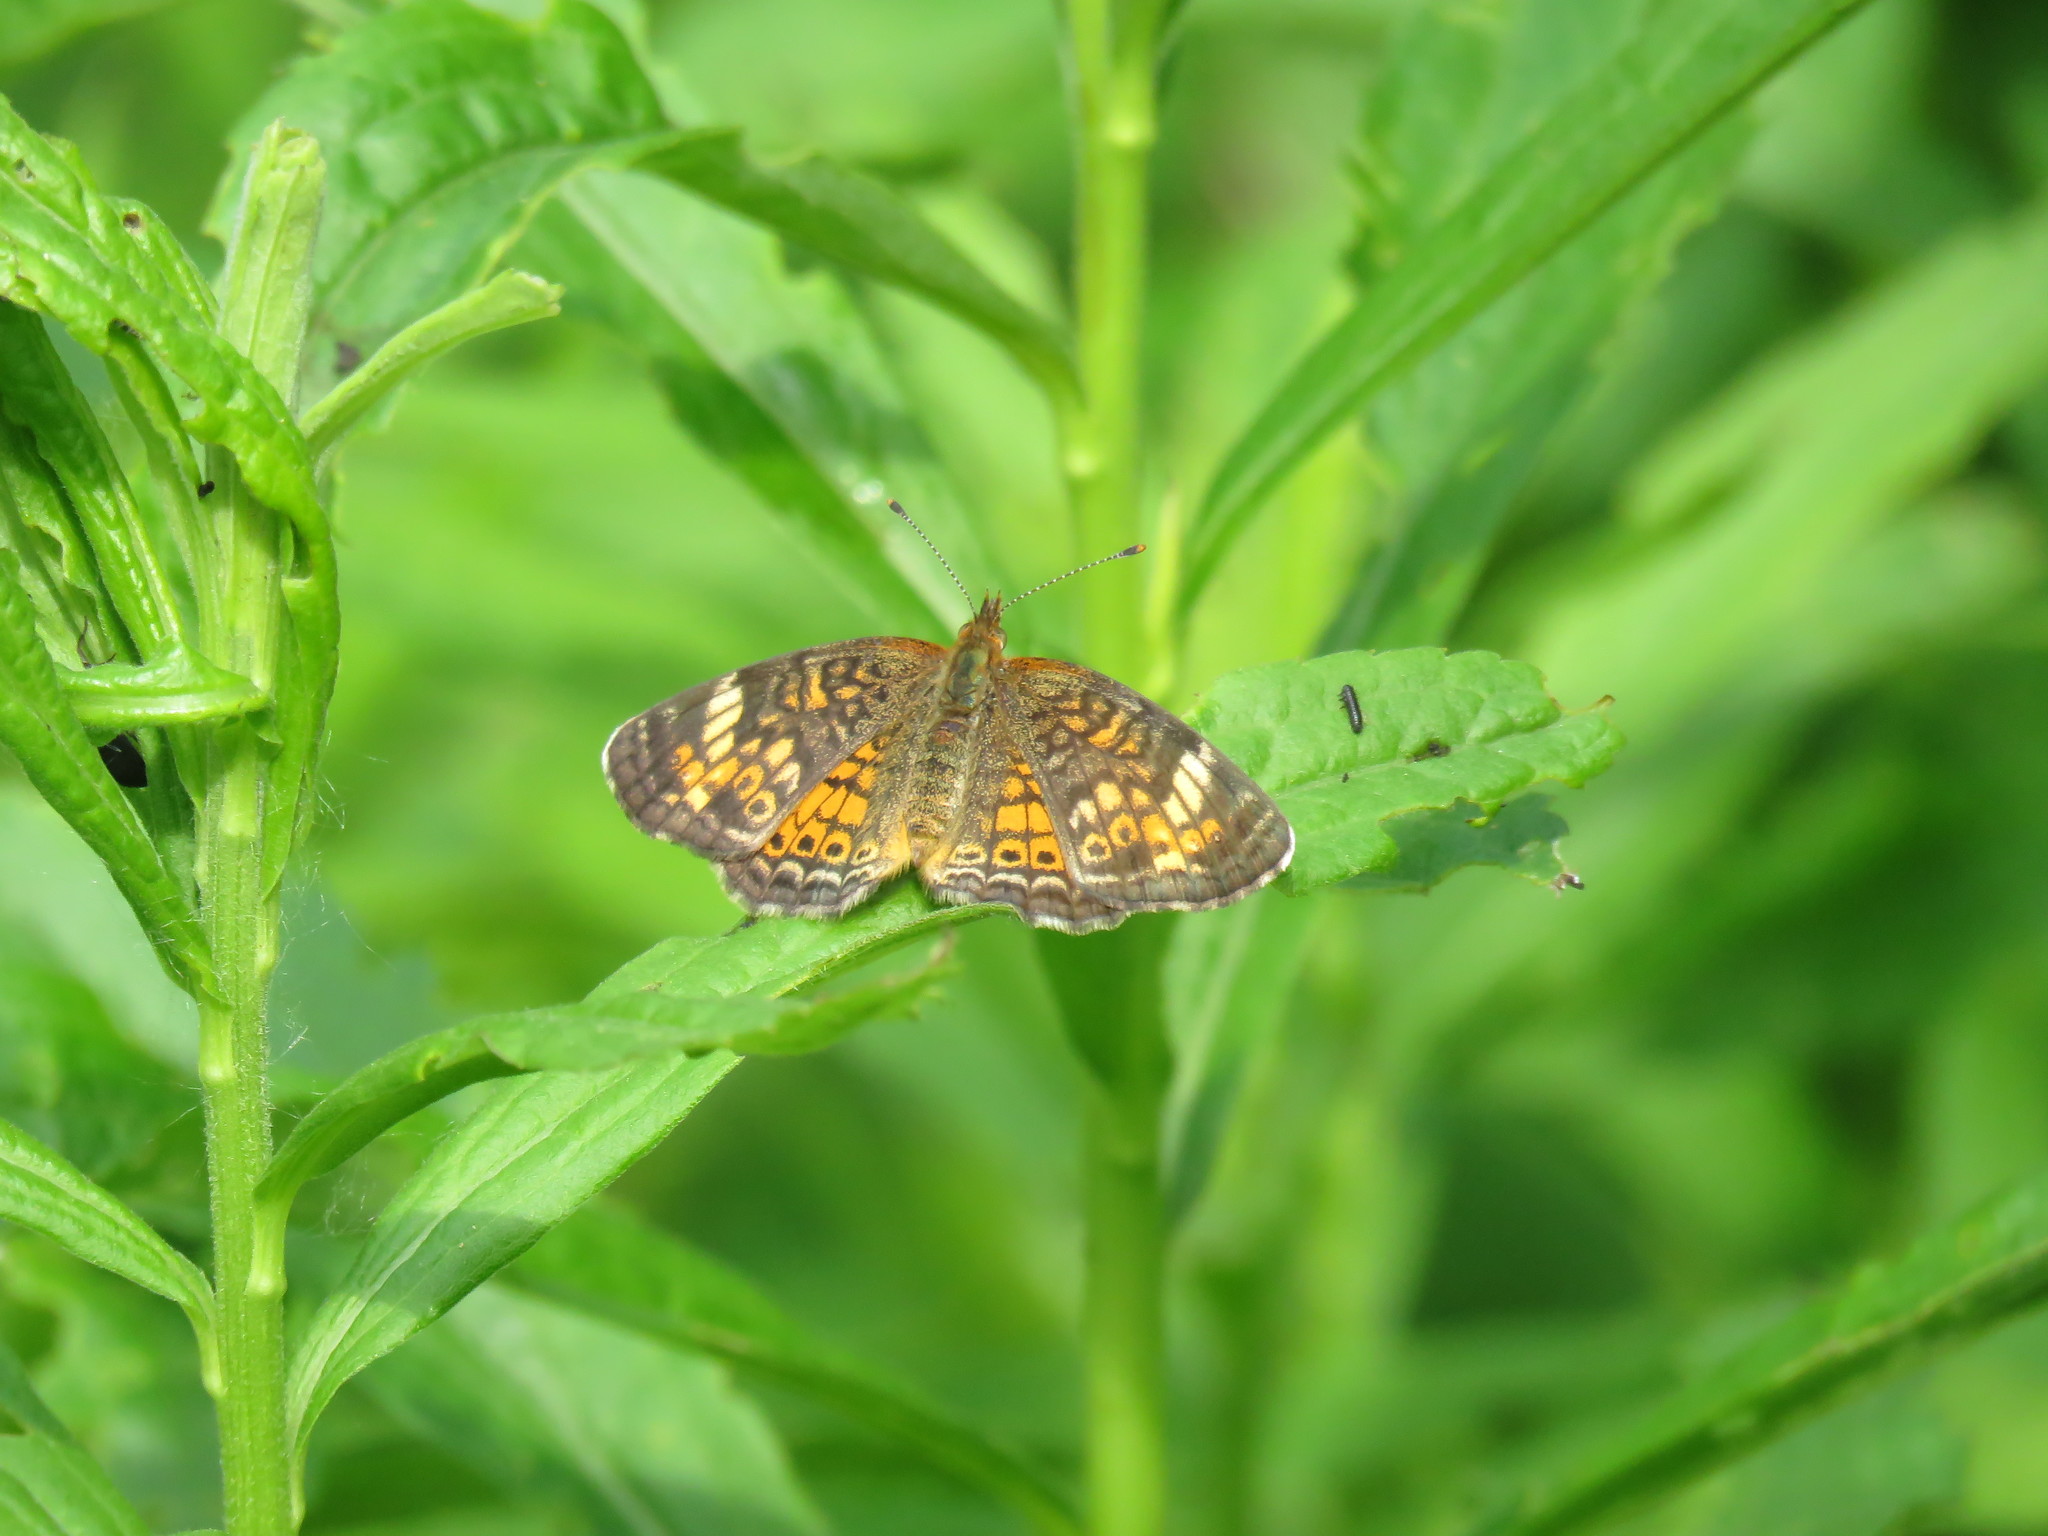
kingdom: Animalia
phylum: Arthropoda
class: Insecta
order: Lepidoptera
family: Nymphalidae
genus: Phyciodes
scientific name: Phyciodes tharos
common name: Pearl crescent
